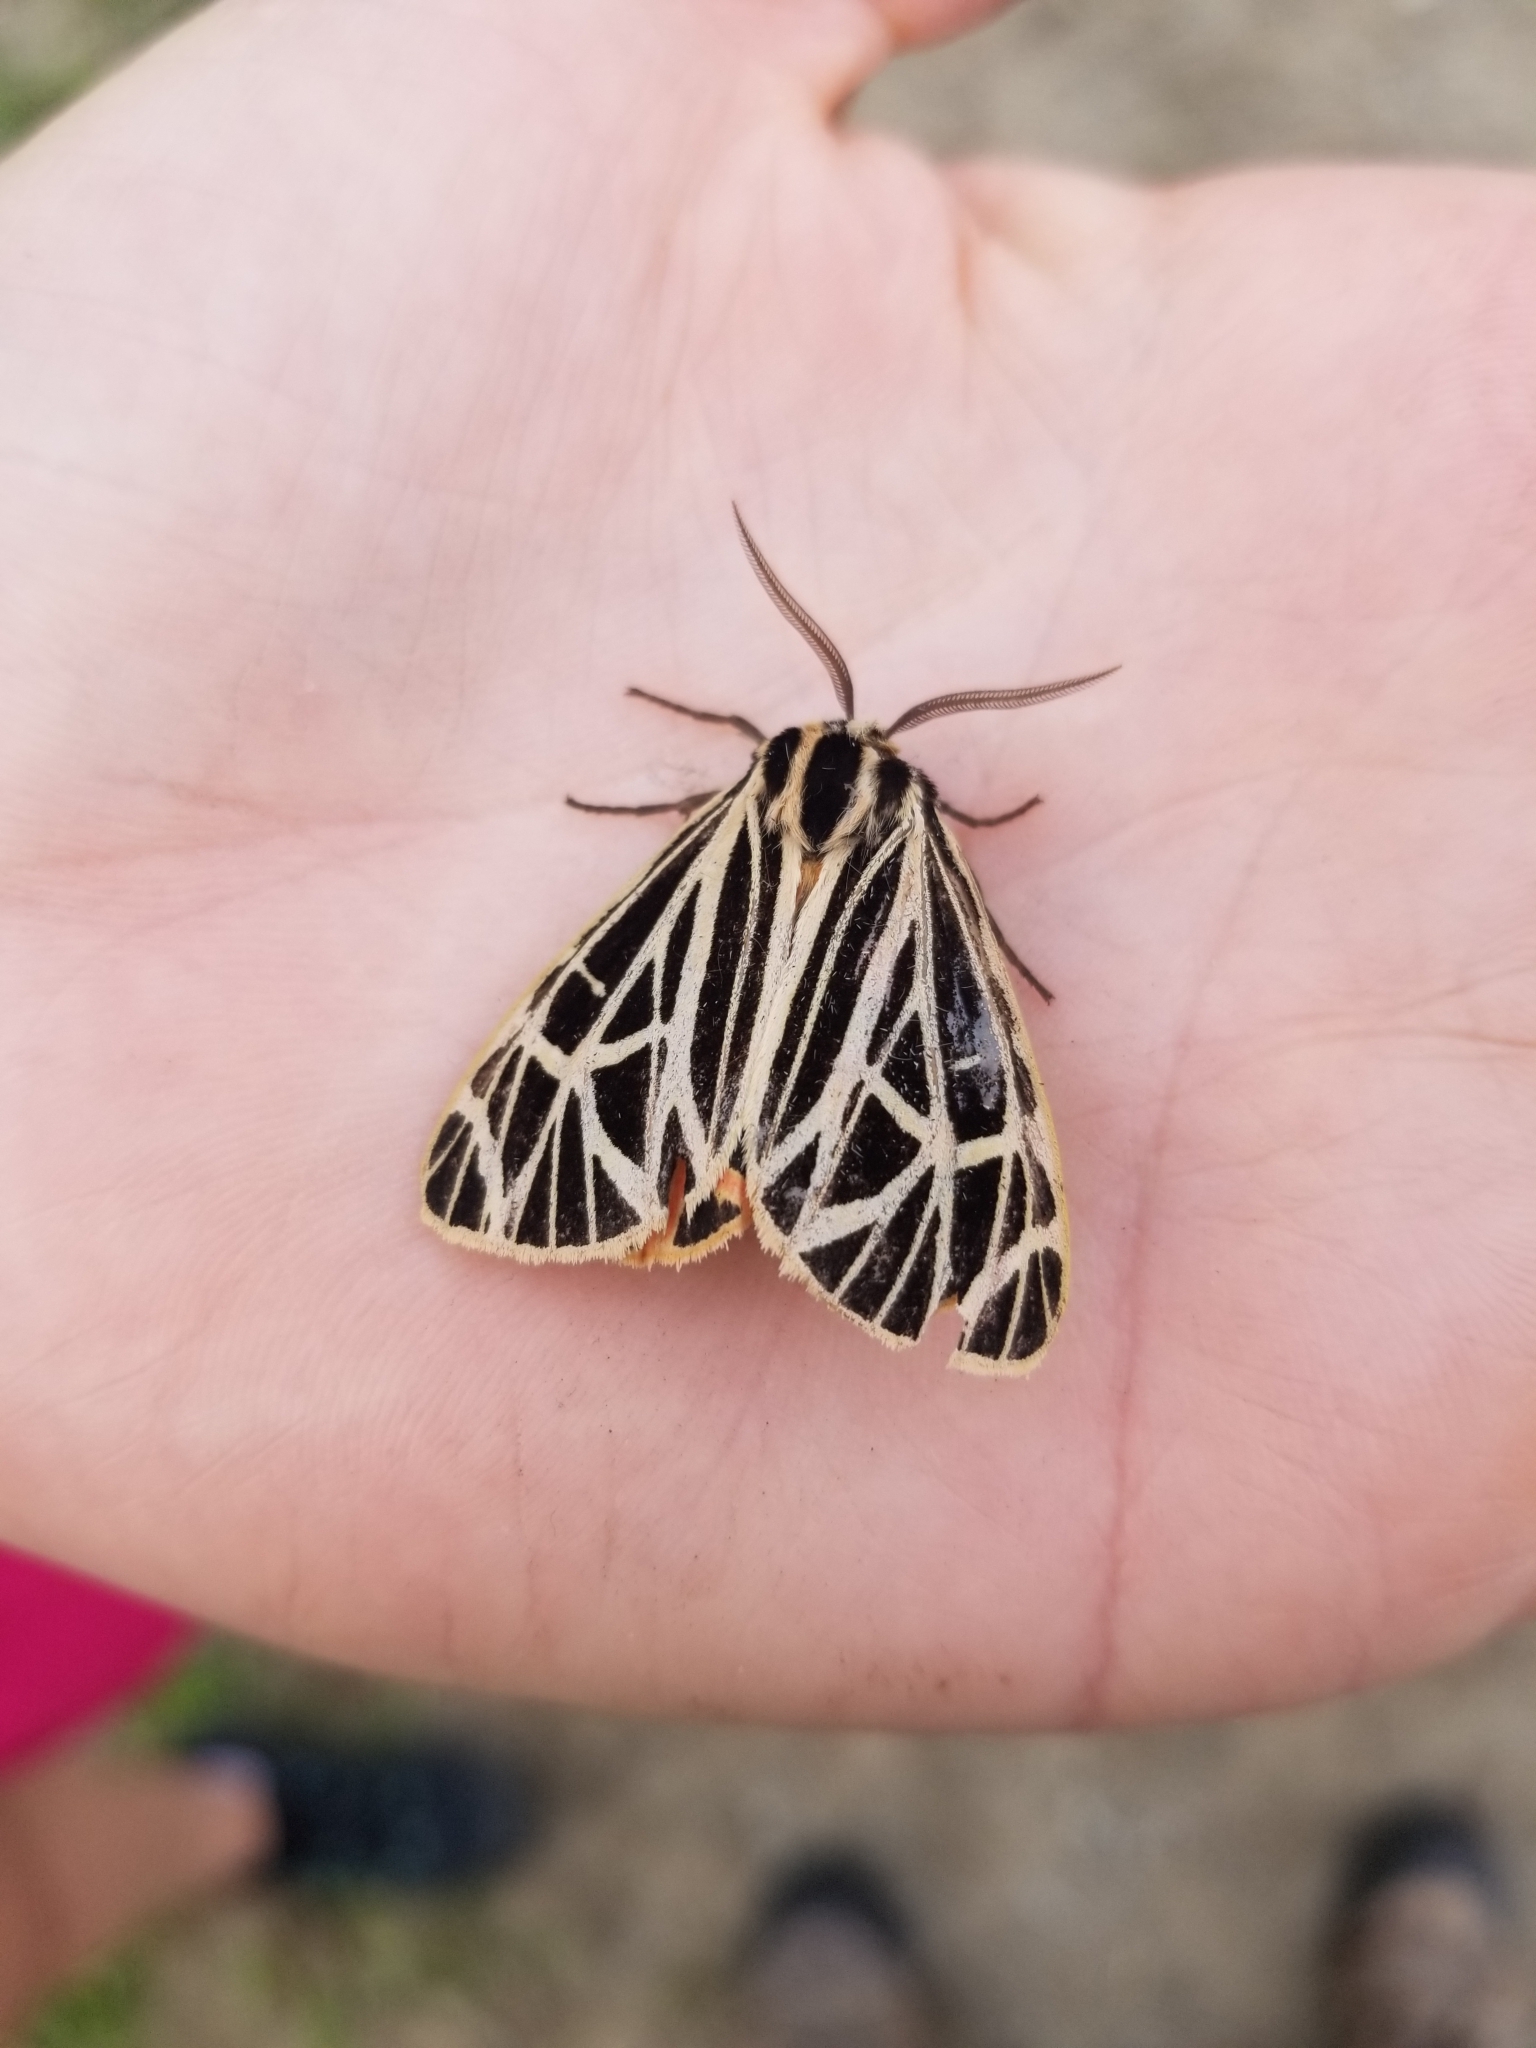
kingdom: Animalia
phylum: Arthropoda
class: Insecta
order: Lepidoptera
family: Erebidae
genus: Grammia
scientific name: Grammia virgo
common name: Virgin tiger moth
